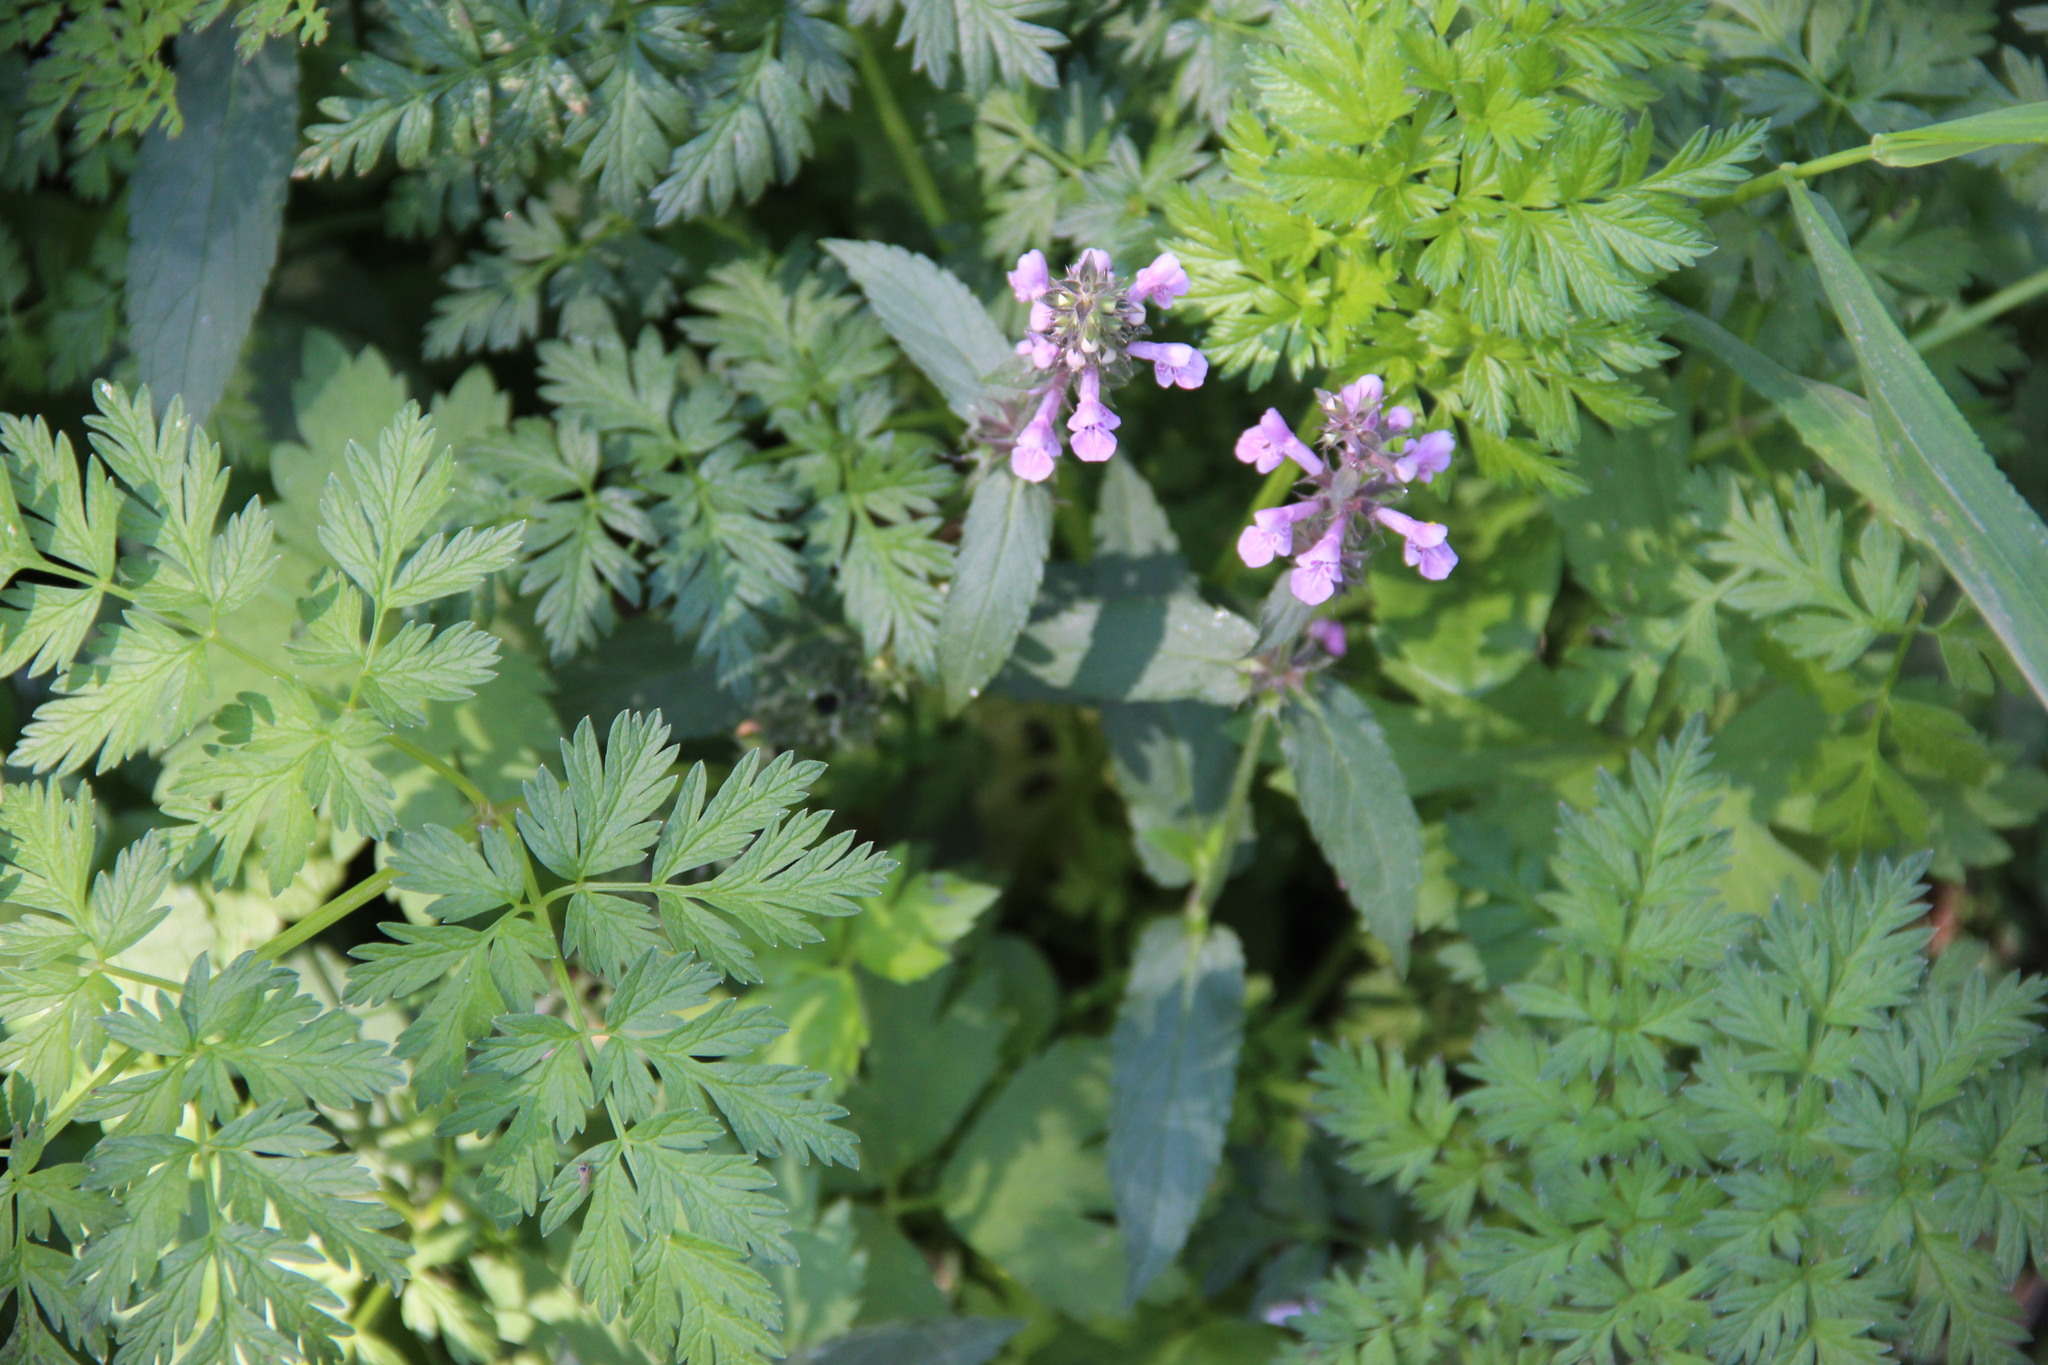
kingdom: Plantae
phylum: Tracheophyta
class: Magnoliopsida
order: Lamiales
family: Lamiaceae
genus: Stachys
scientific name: Stachys palustris
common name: Marsh woundwort
